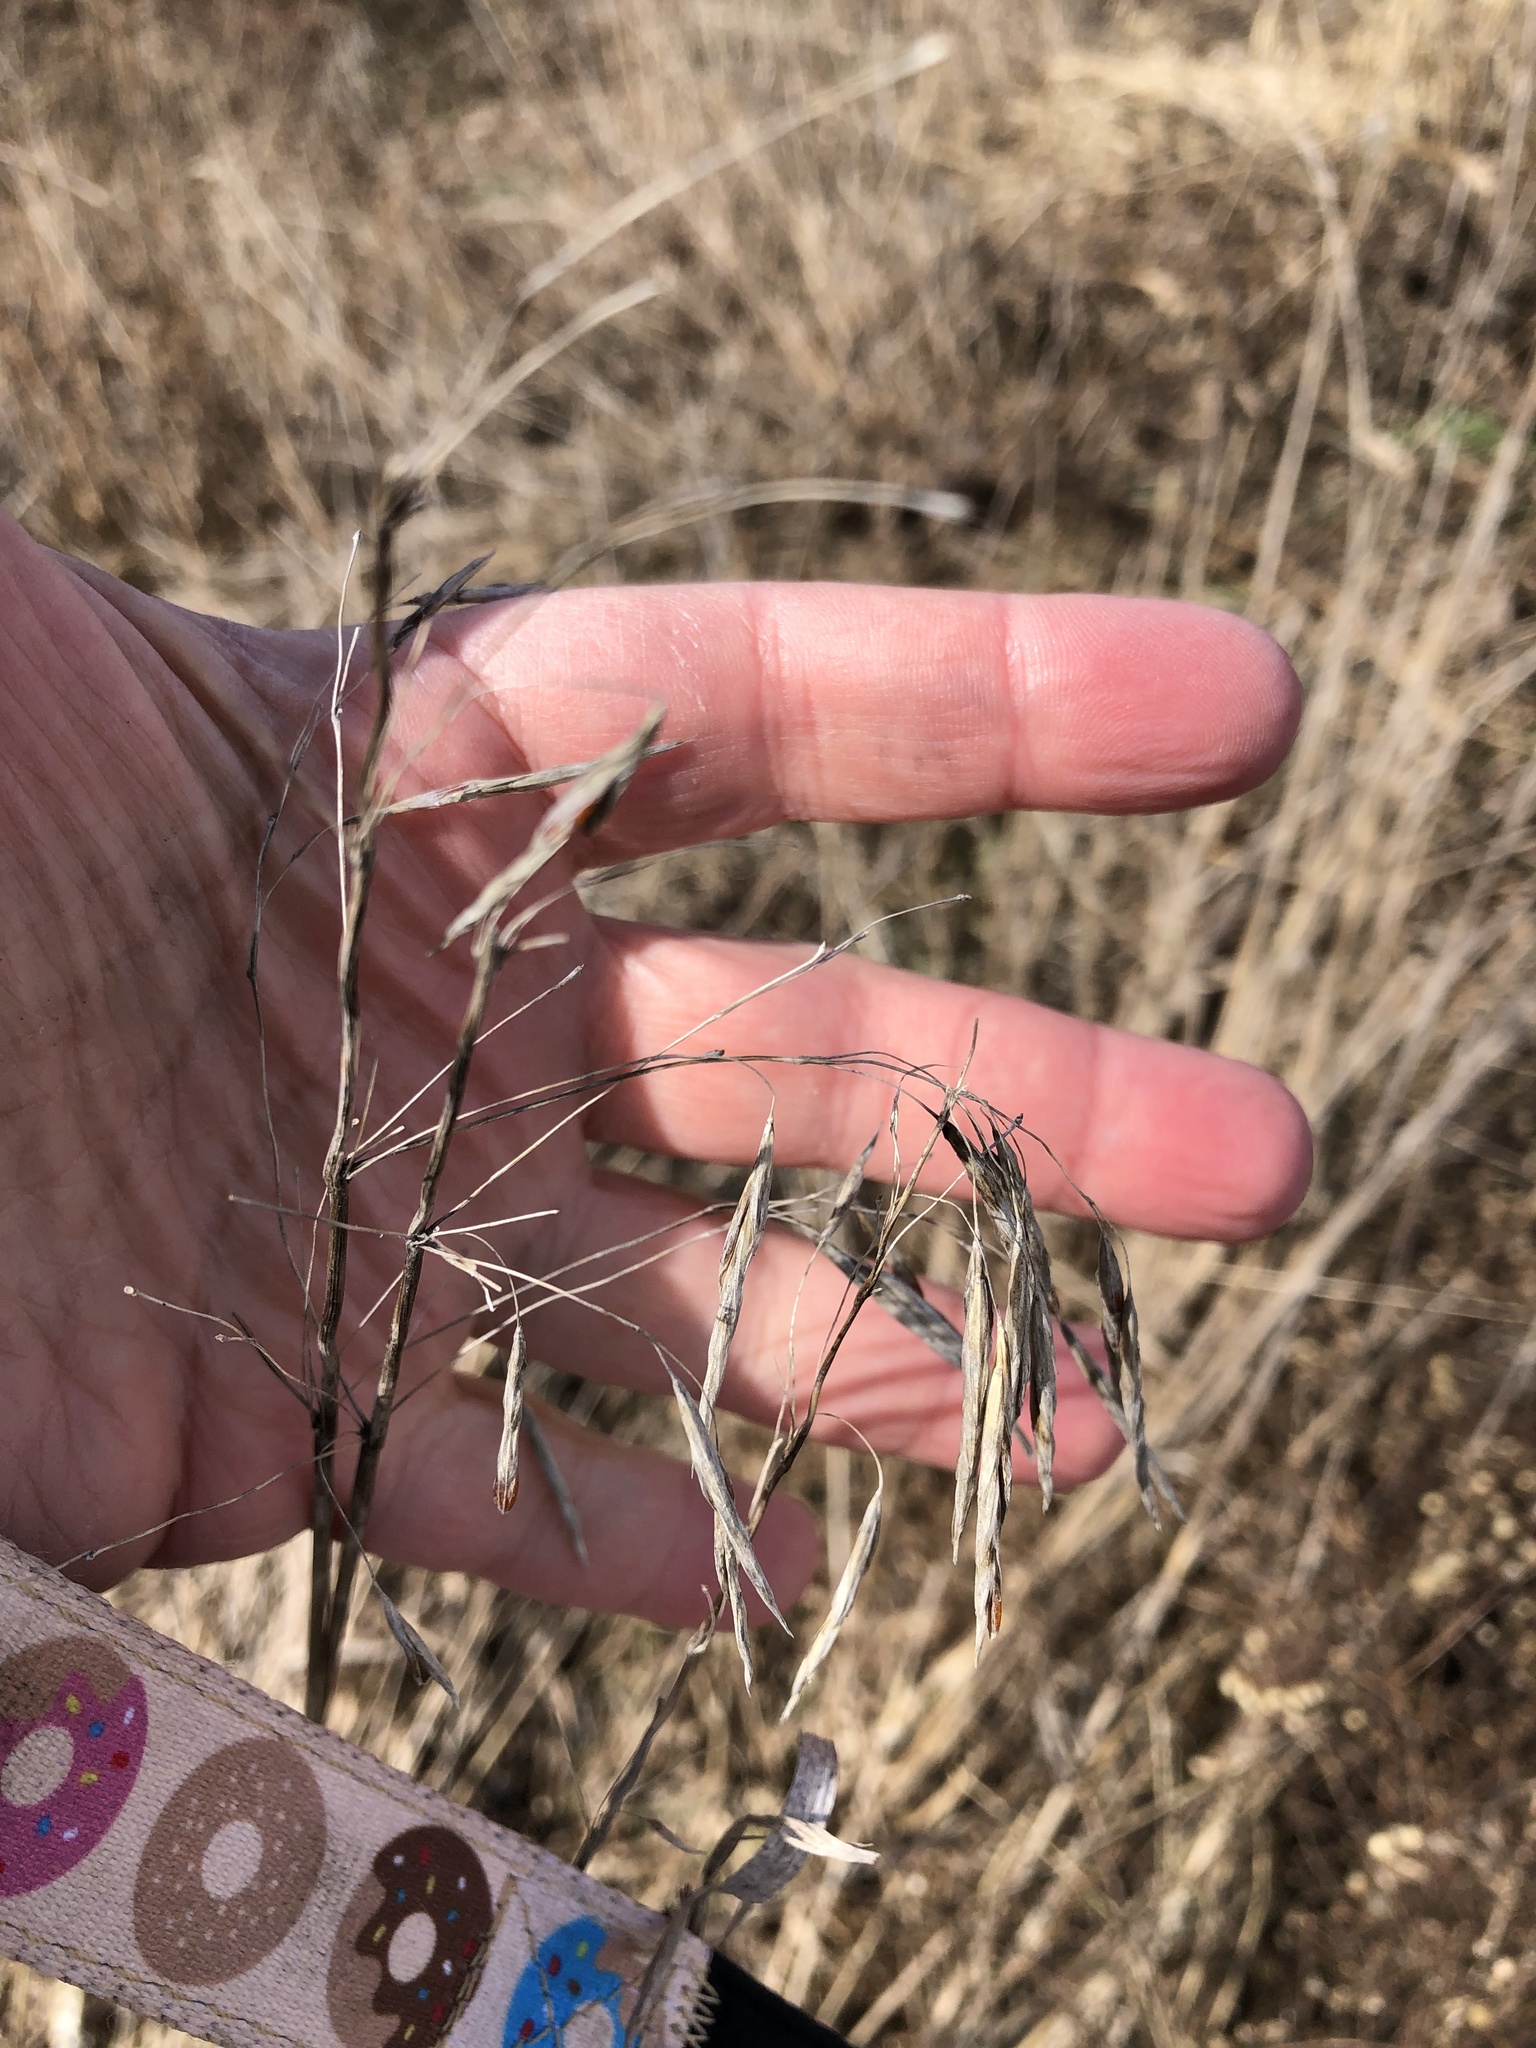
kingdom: Plantae
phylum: Tracheophyta
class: Liliopsida
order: Poales
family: Poaceae
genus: Bromus
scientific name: Bromus inermis
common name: Smooth brome
